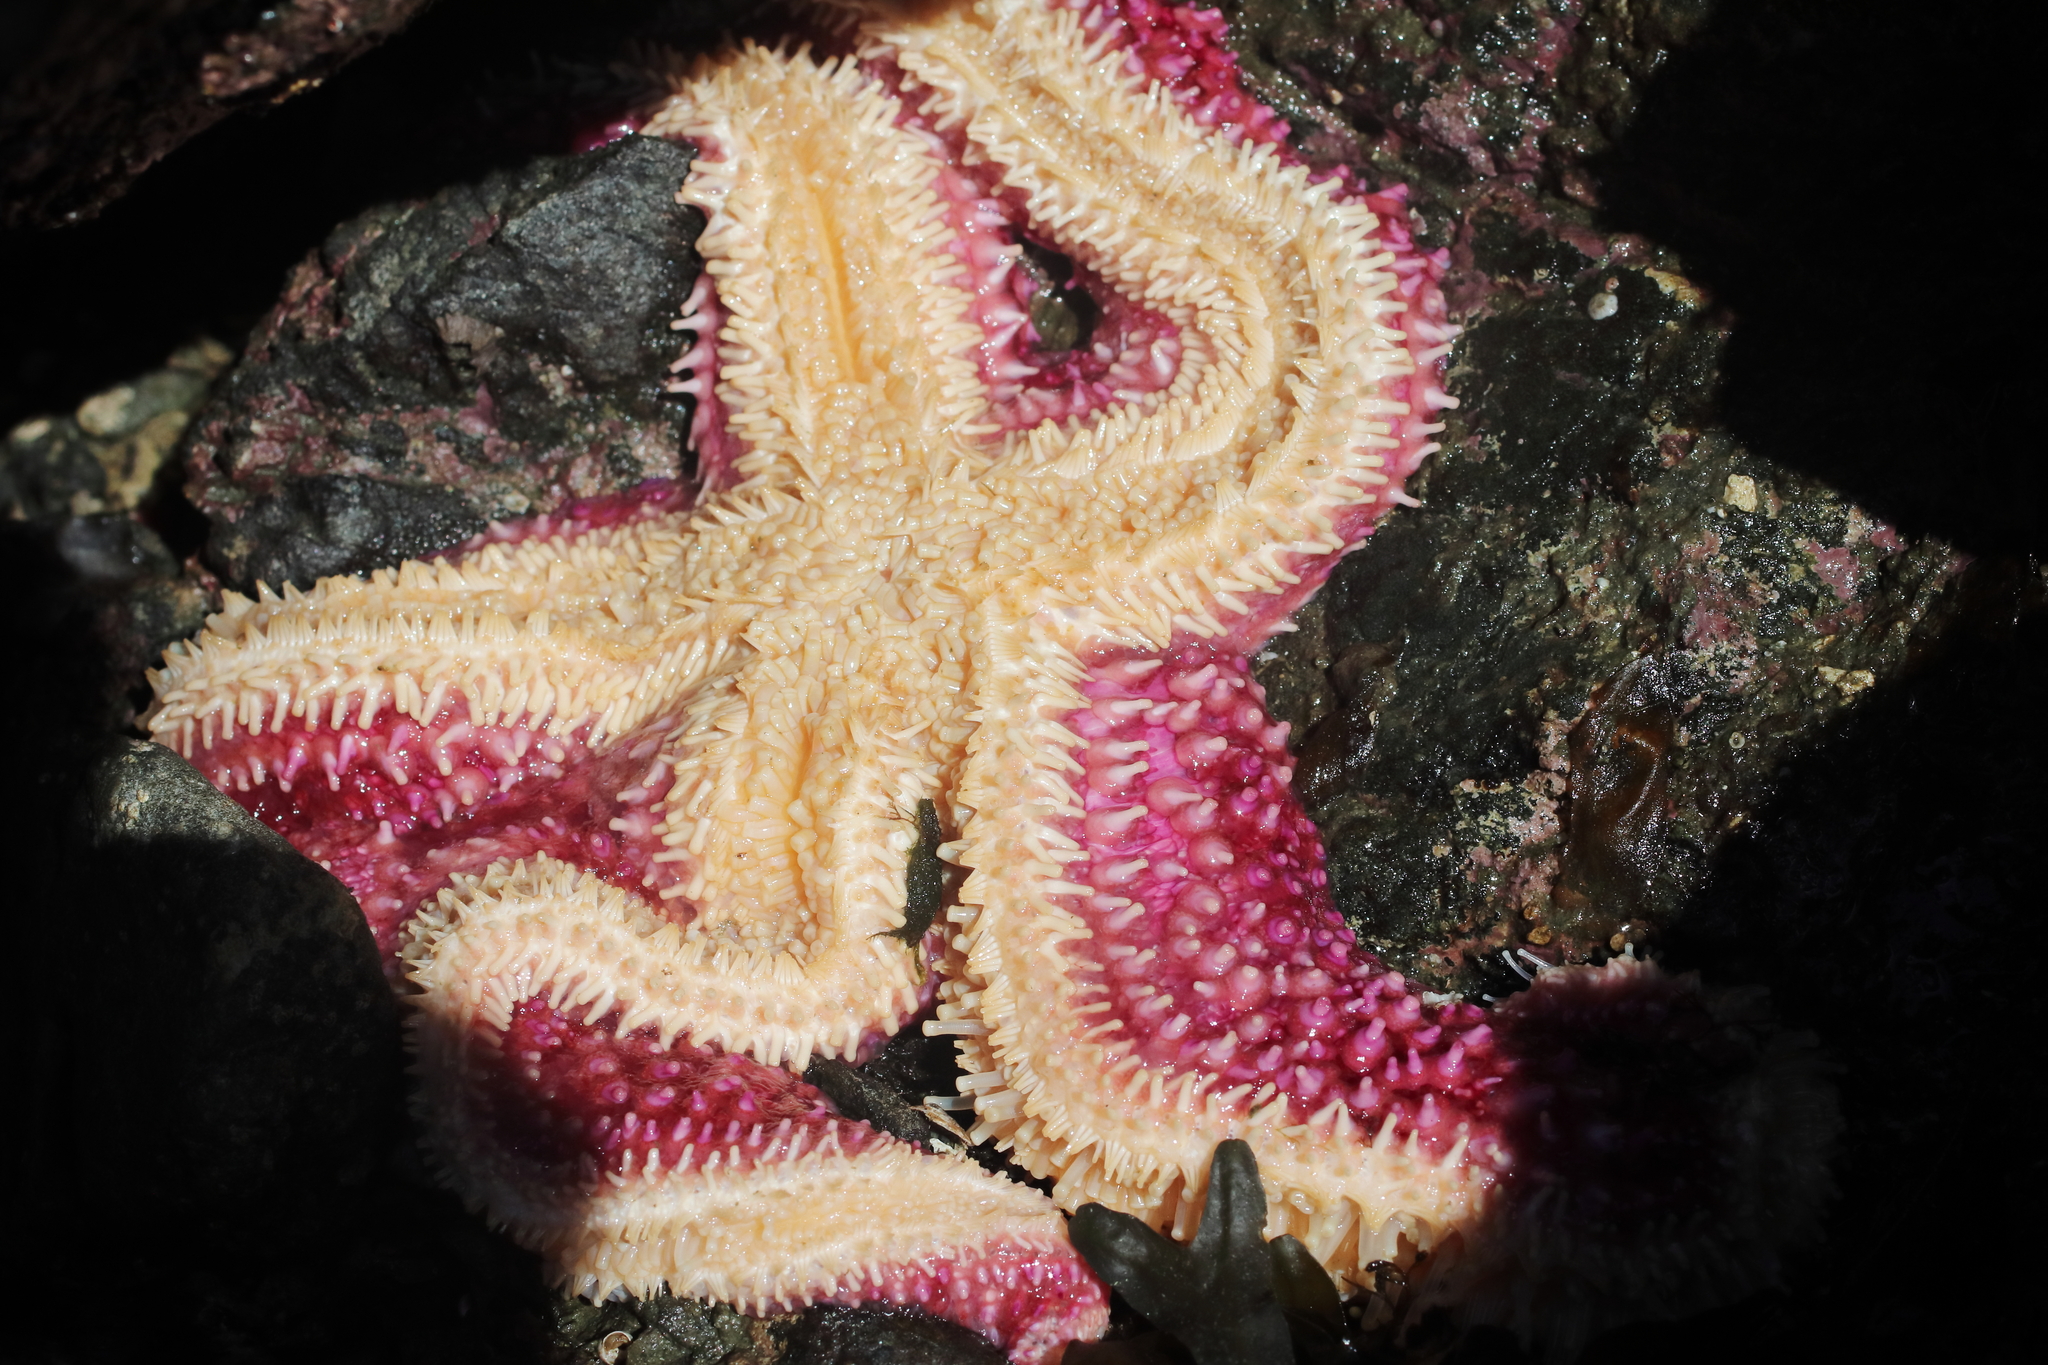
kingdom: Animalia
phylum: Echinodermata
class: Asteroidea
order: Forcipulatida
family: Asteriidae
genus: Orthasterias
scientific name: Orthasterias koehleri
